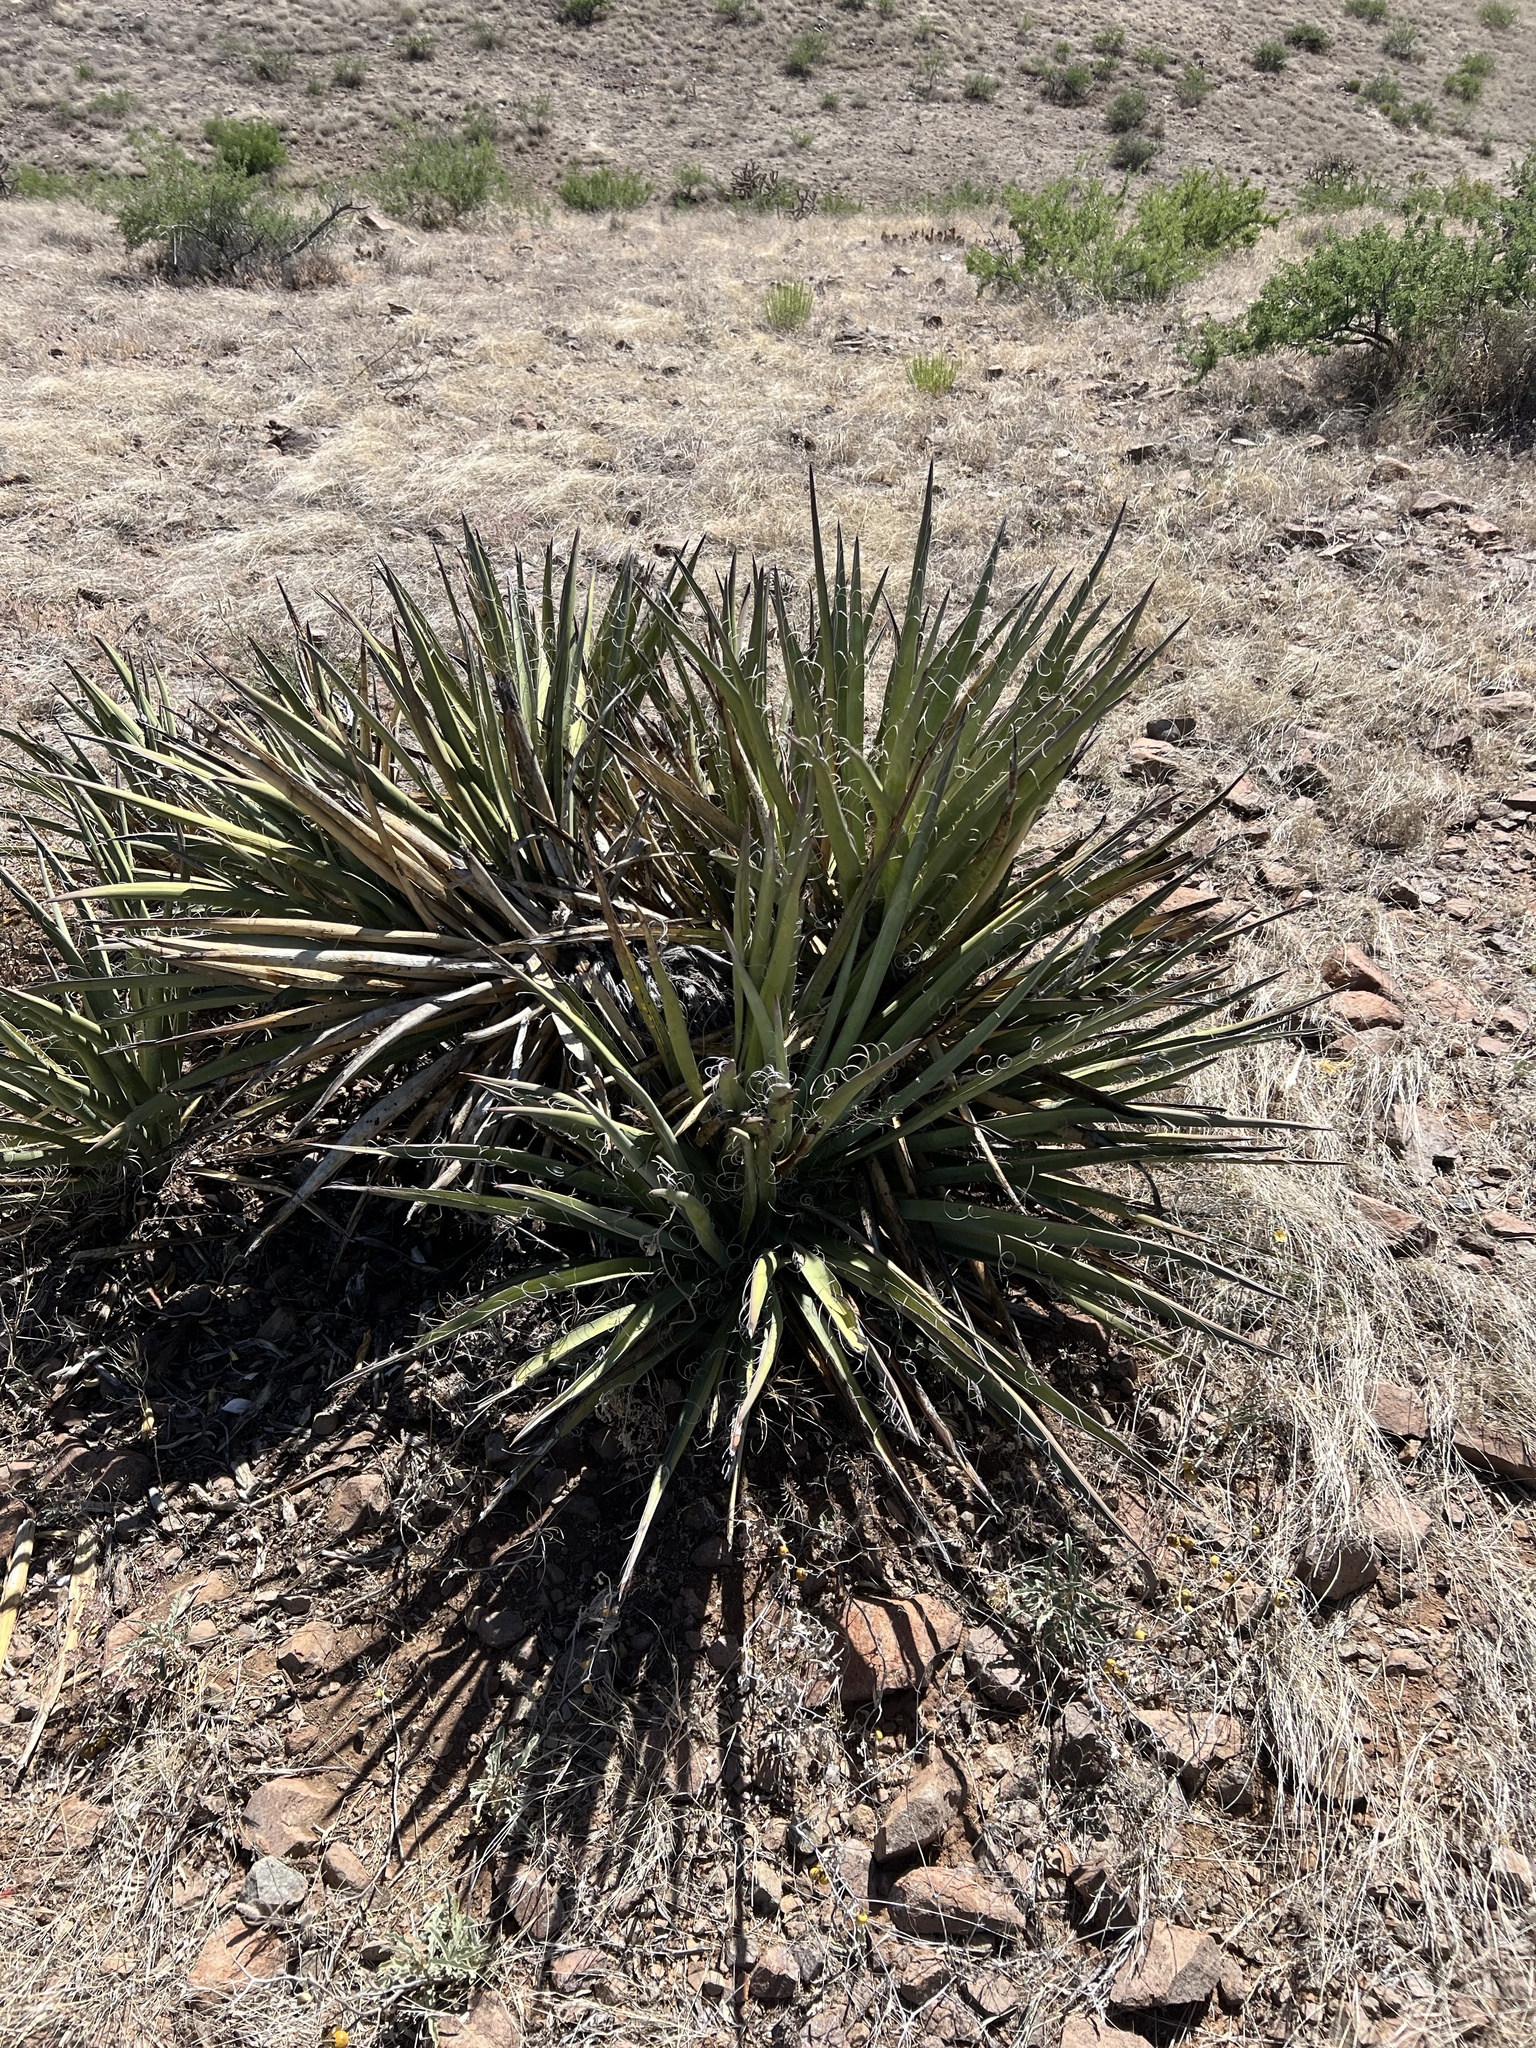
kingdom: Plantae
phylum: Tracheophyta
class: Liliopsida
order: Asparagales
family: Asparagaceae
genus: Yucca
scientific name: Yucca baccata
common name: Banana yucca
